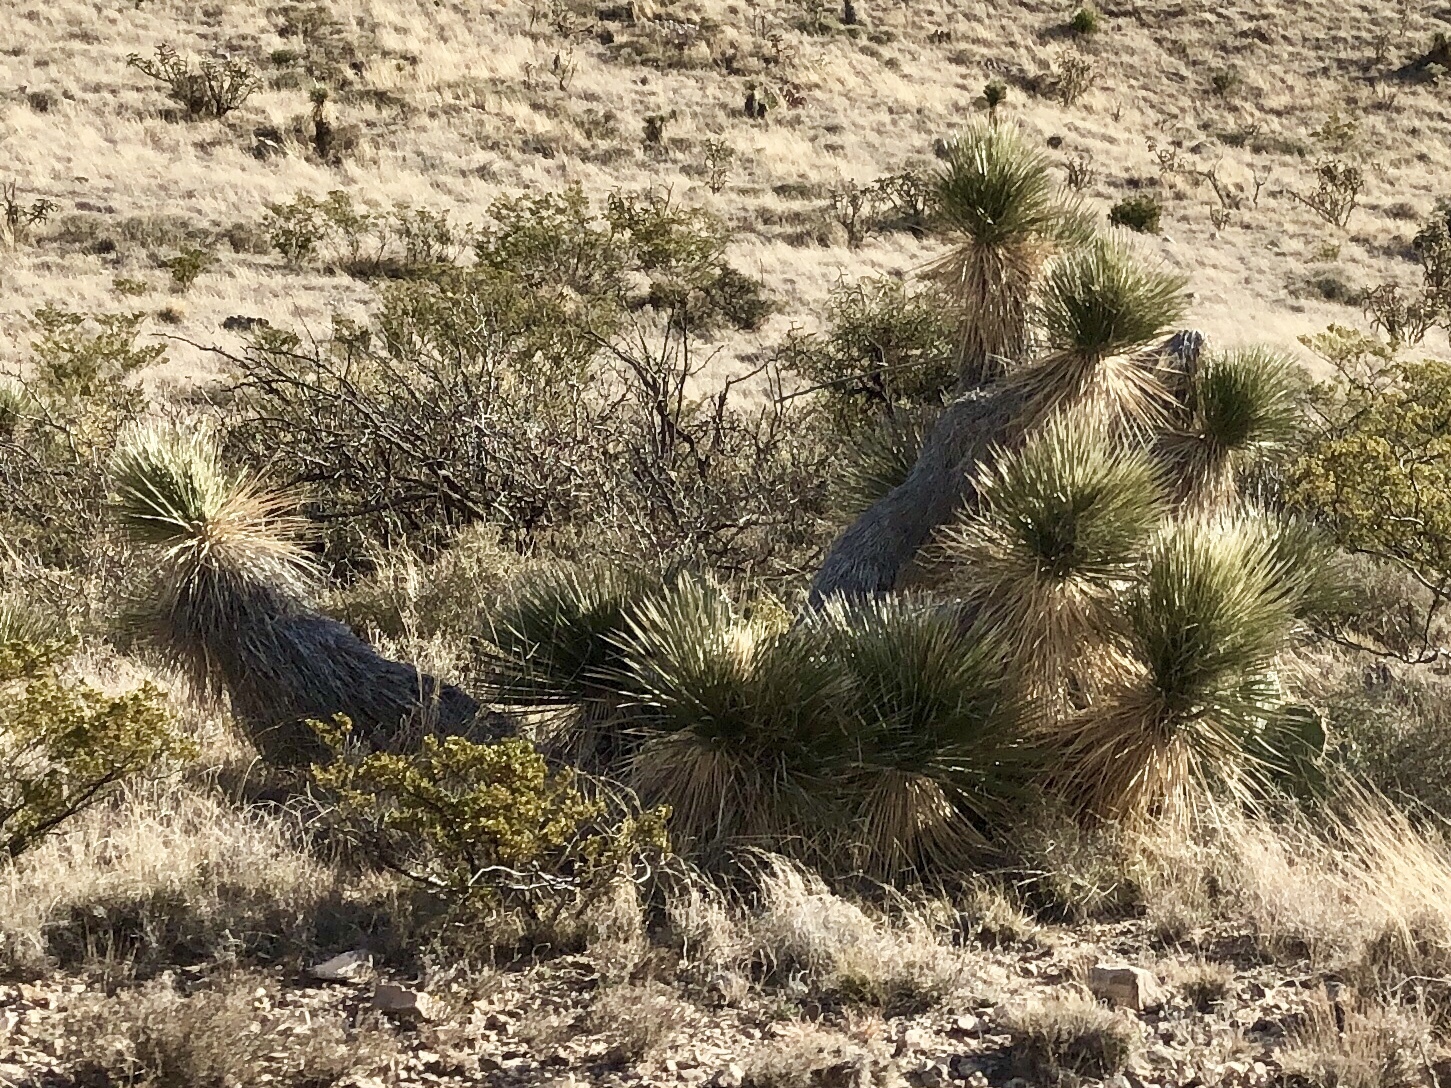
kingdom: Plantae
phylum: Tracheophyta
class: Liliopsida
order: Asparagales
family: Asparagaceae
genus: Yucca
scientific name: Yucca elata
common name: Palmella
